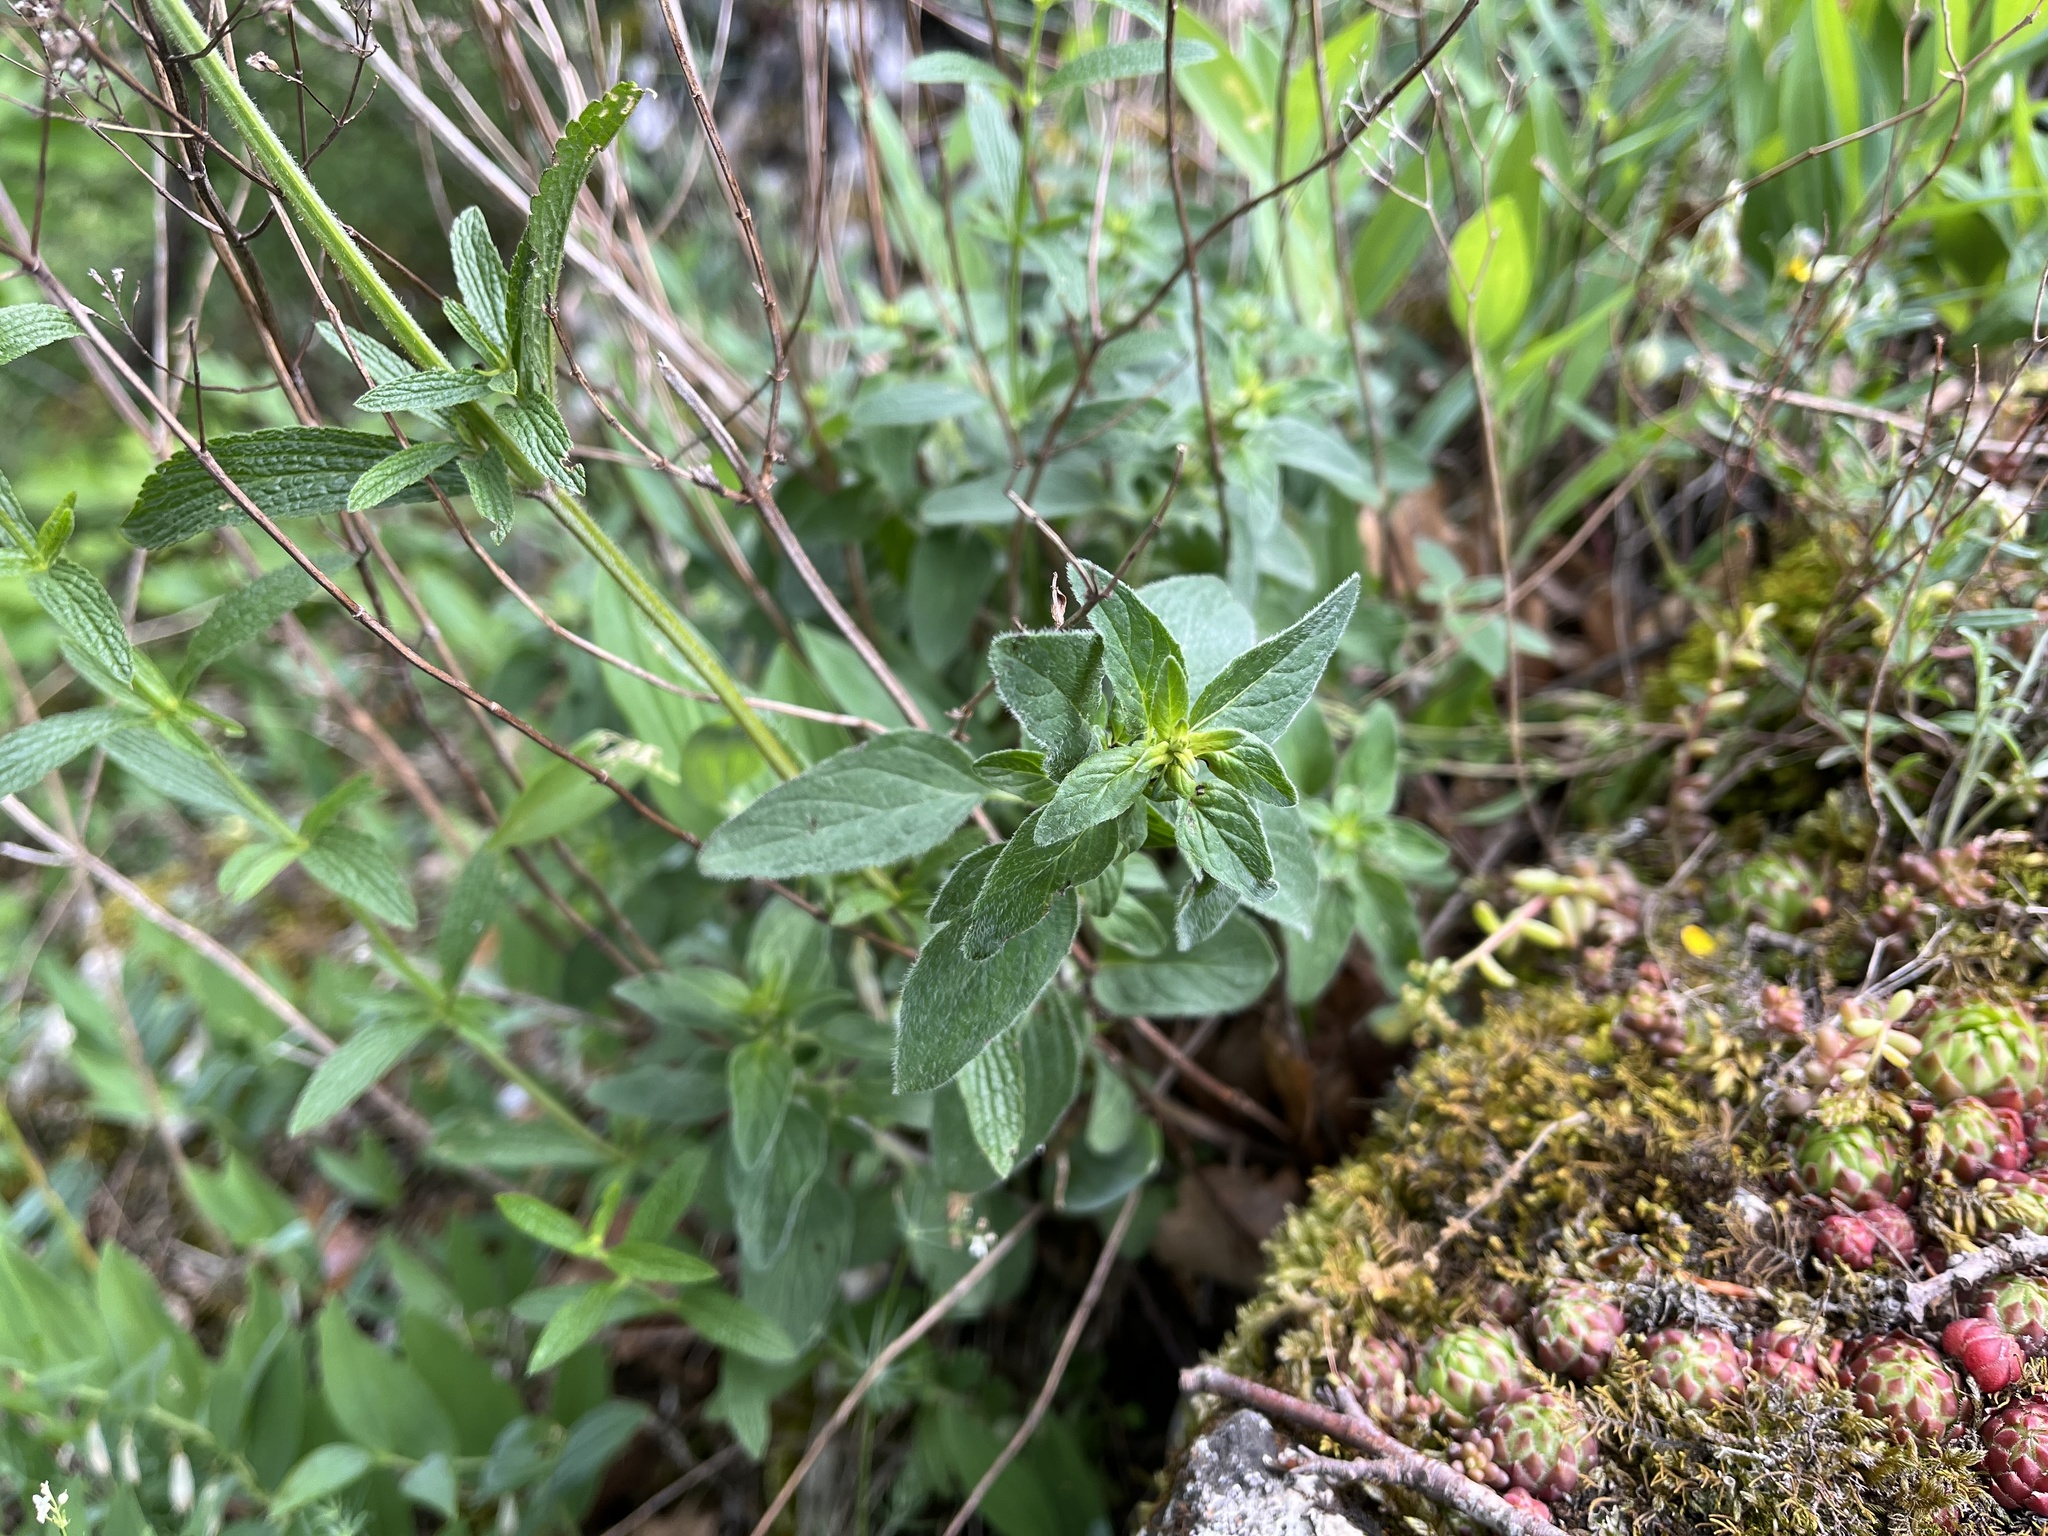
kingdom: Plantae
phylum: Tracheophyta
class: Magnoliopsida
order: Lamiales
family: Lamiaceae
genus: Origanum
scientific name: Origanum vulgare
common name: Wild marjoram
